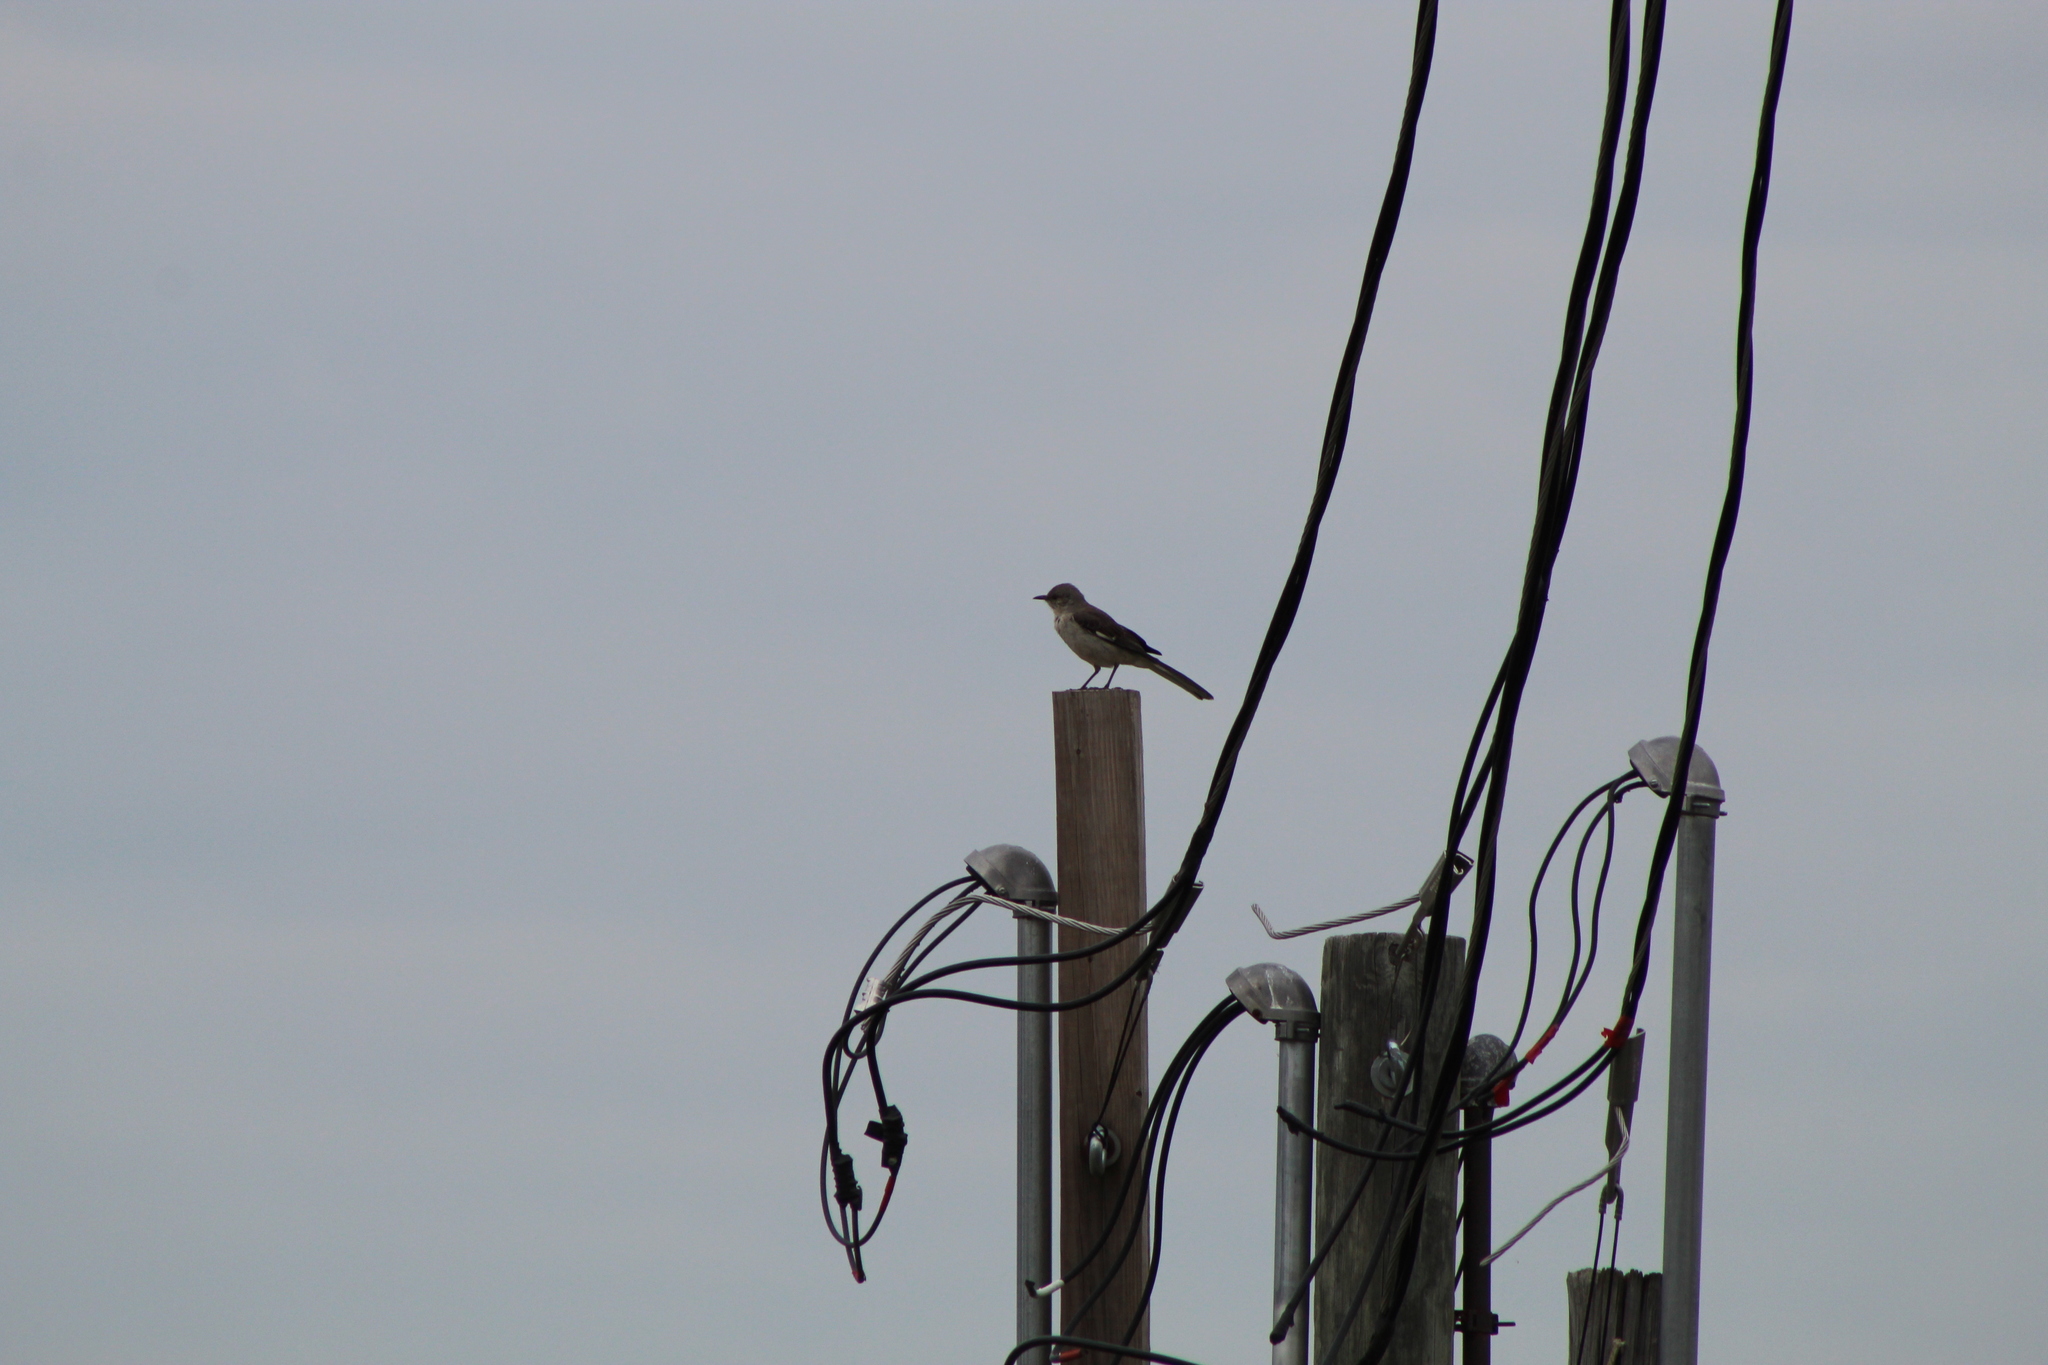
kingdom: Animalia
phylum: Chordata
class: Aves
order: Passeriformes
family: Mimidae
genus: Mimus
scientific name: Mimus polyglottos
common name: Northern mockingbird
